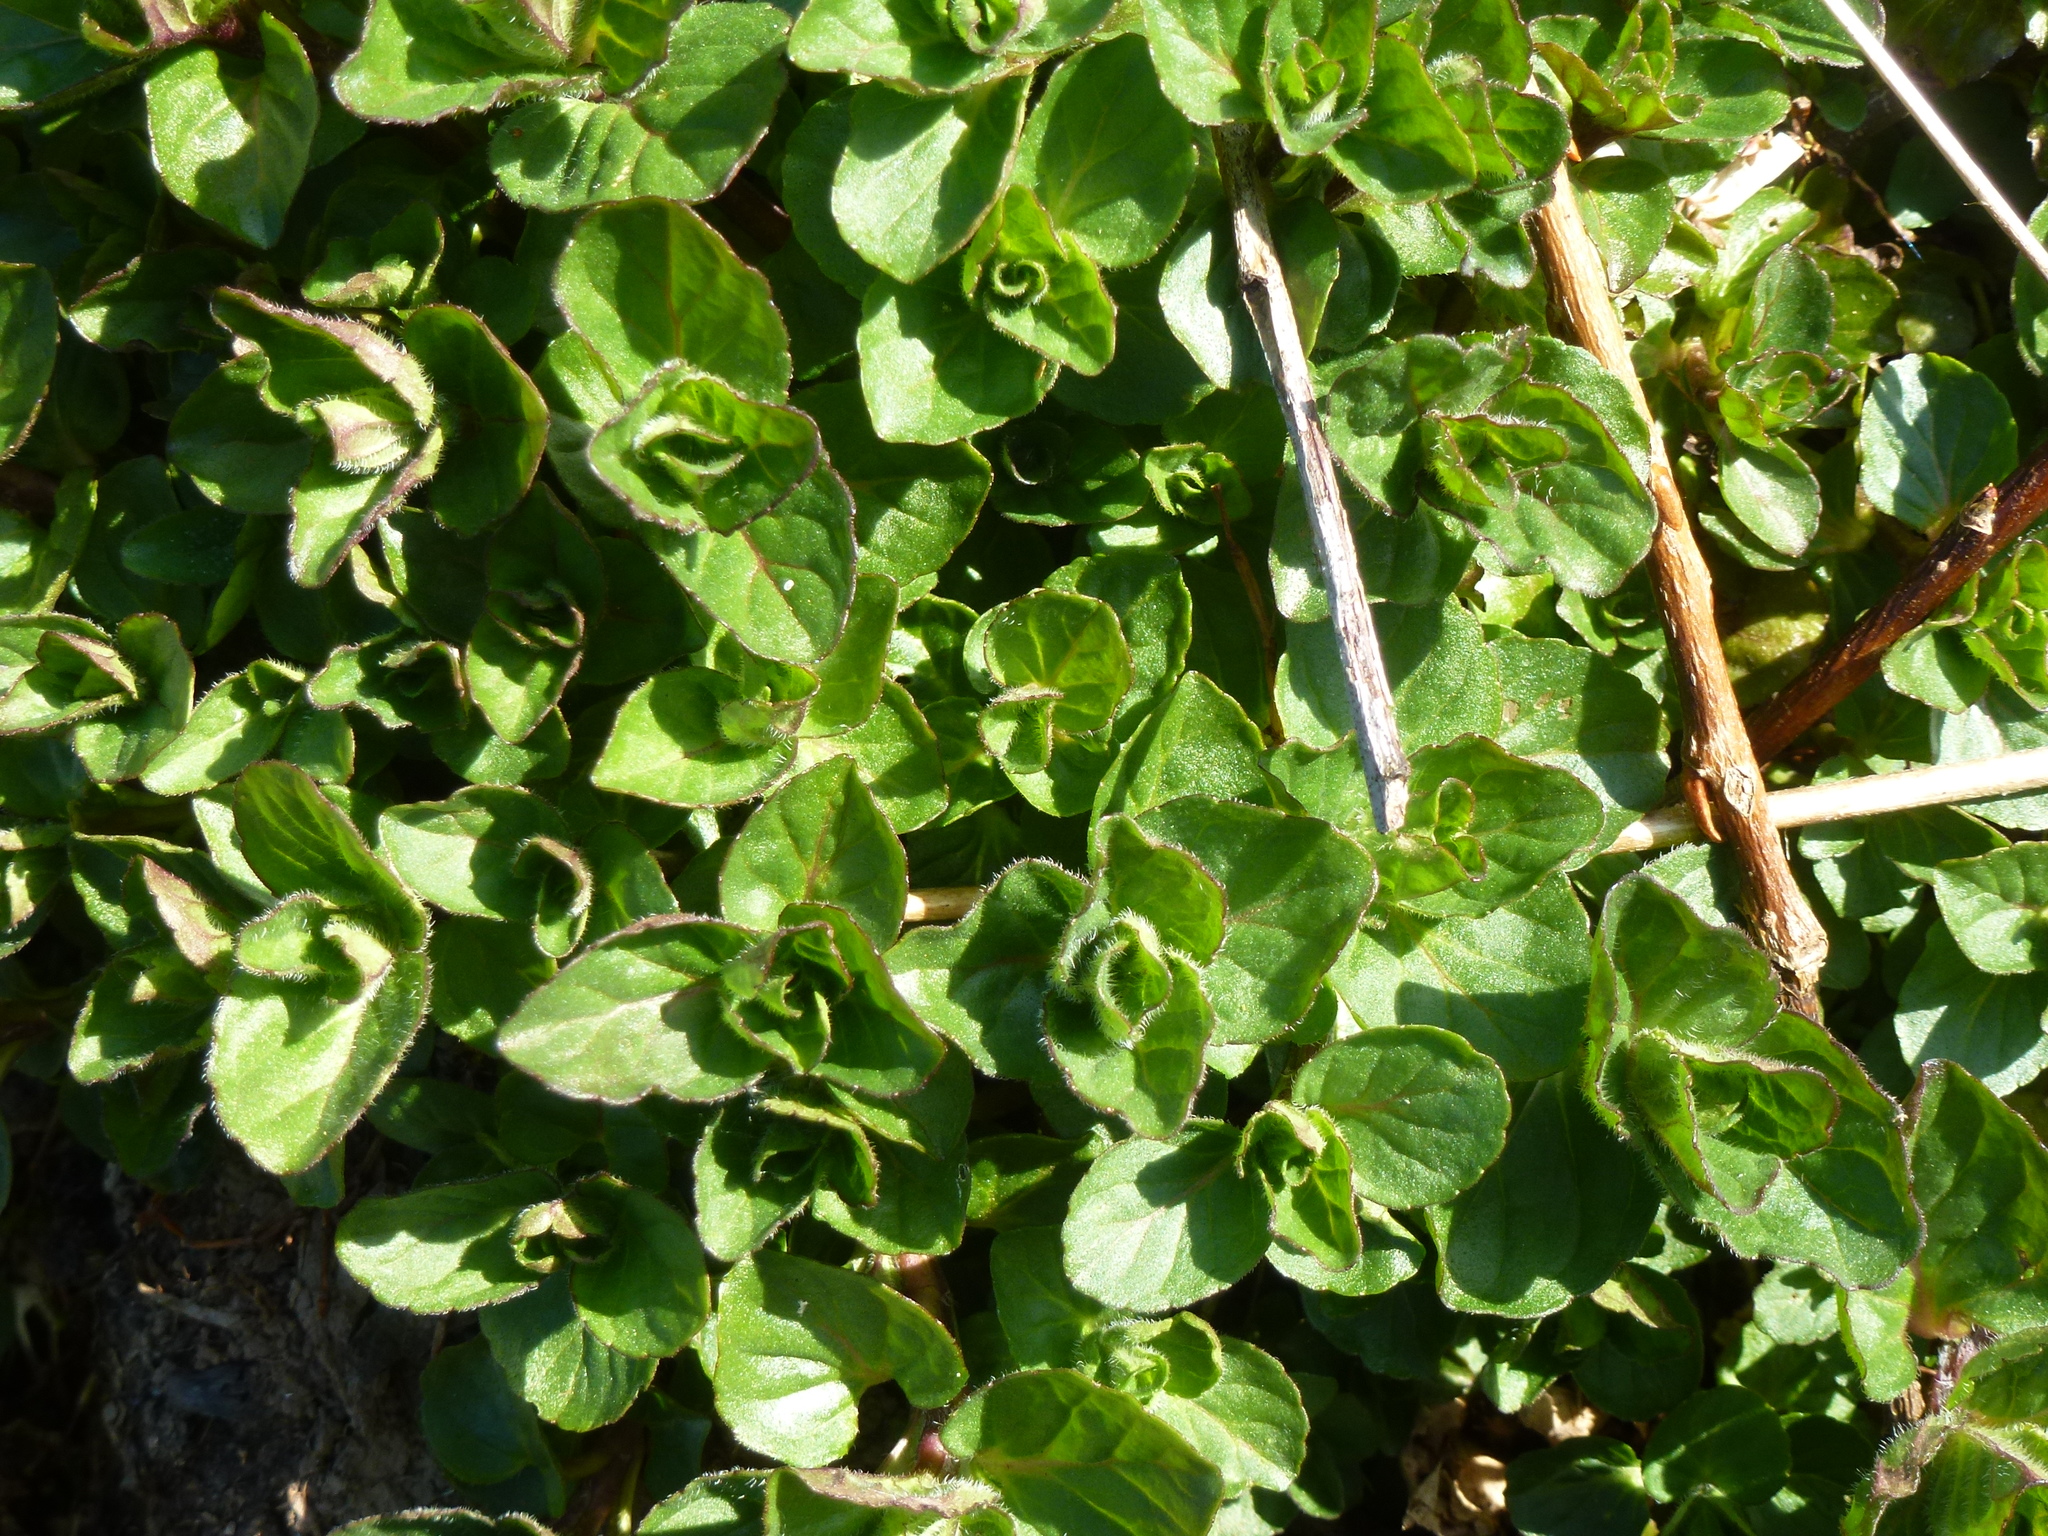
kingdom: Plantae
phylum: Tracheophyta
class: Magnoliopsida
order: Lamiales
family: Lamiaceae
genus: Mentha
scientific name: Mentha aquatica
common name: Water mint
